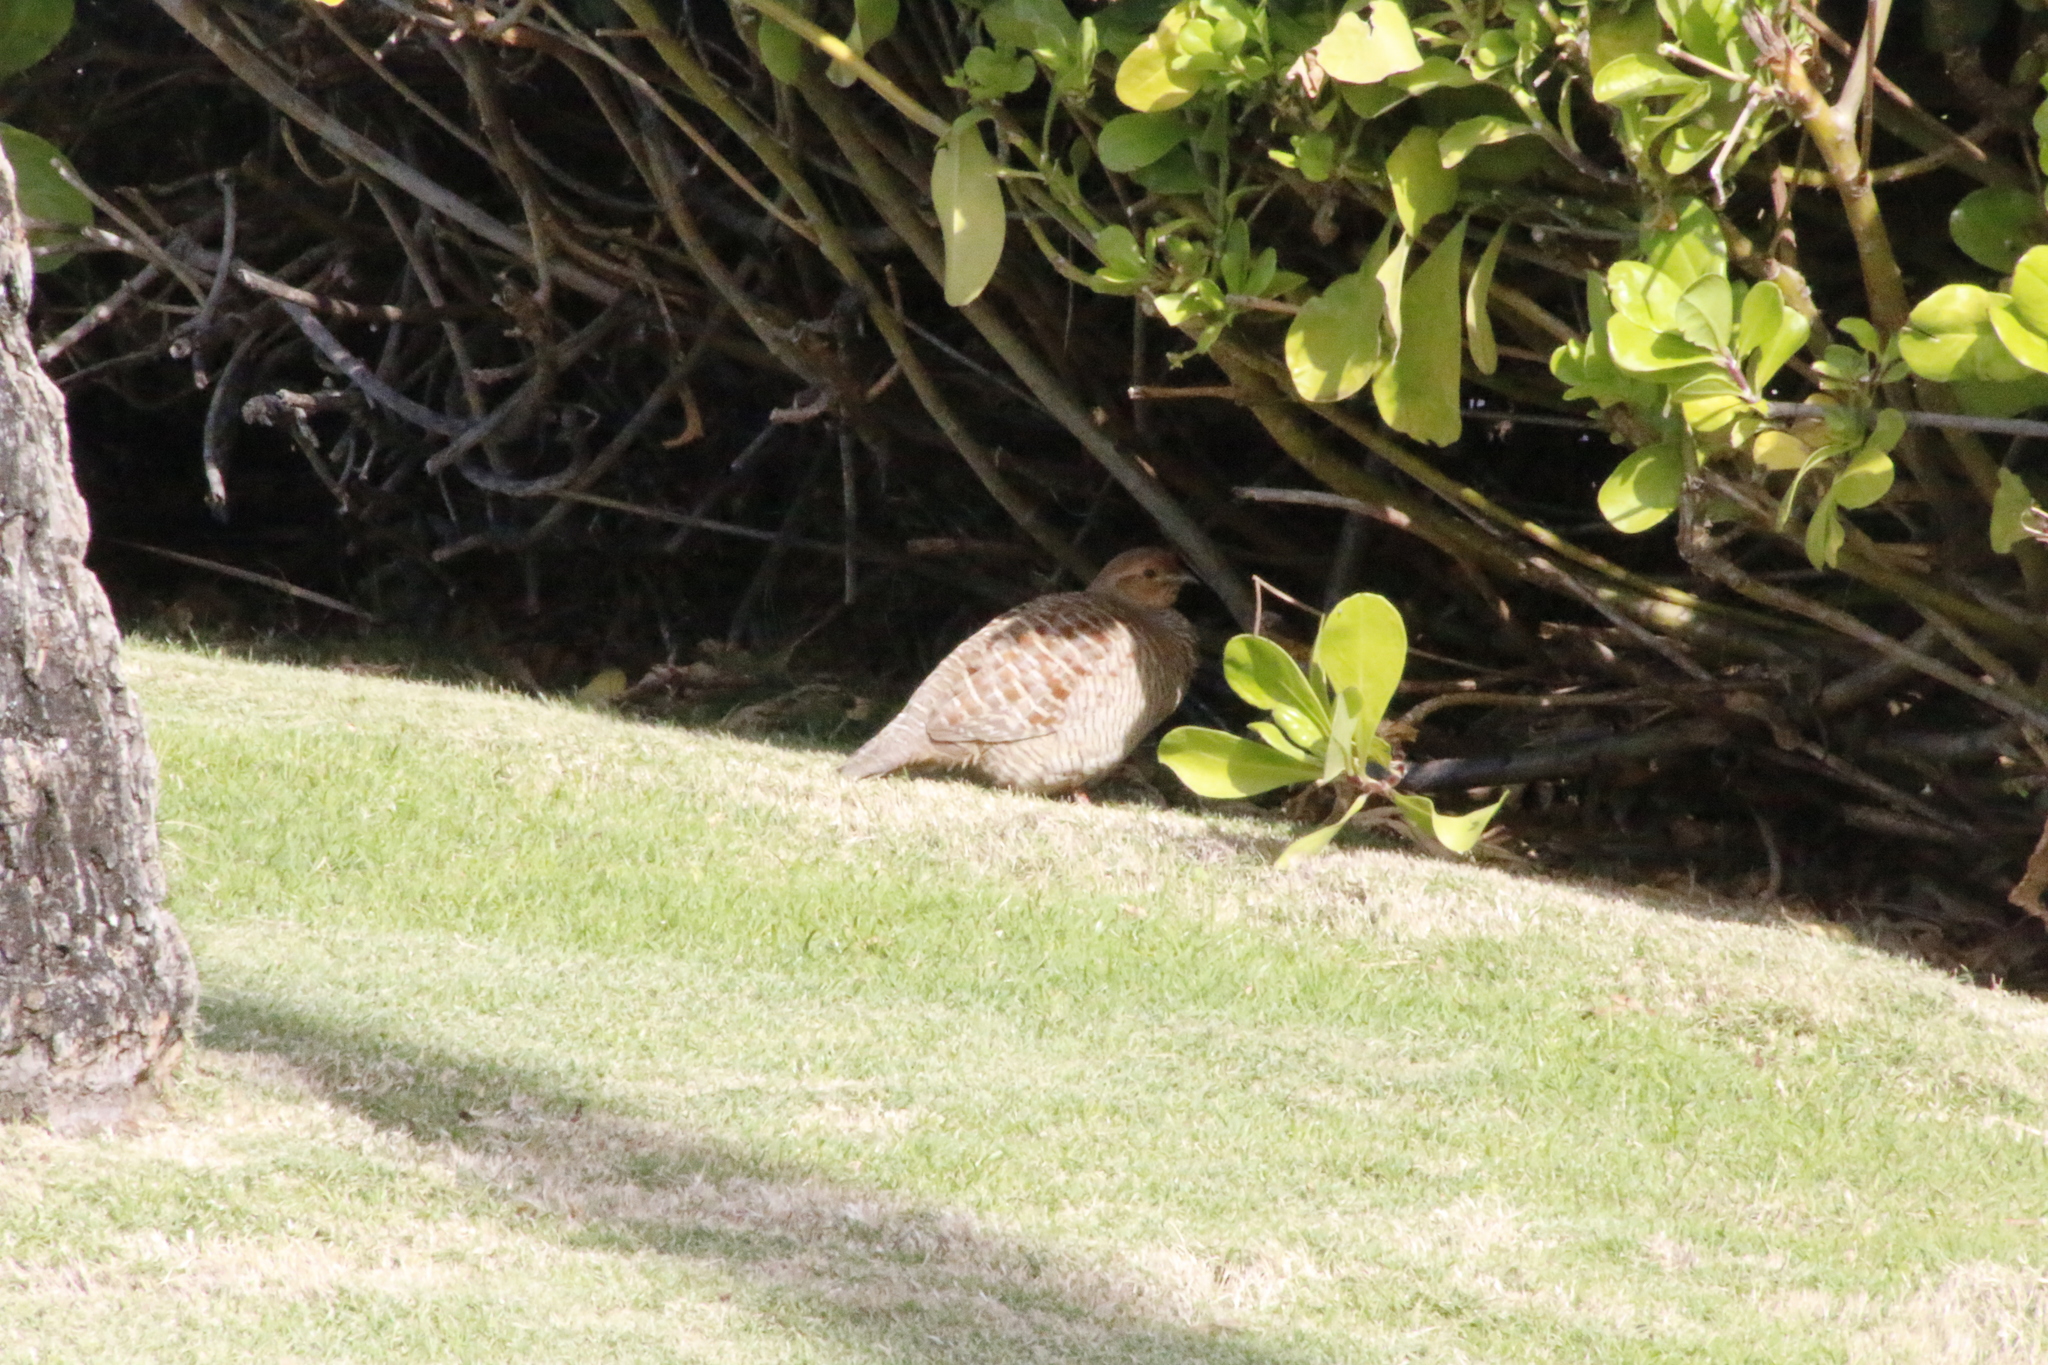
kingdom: Animalia
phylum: Chordata
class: Aves
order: Galliformes
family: Phasianidae
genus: Ortygornis
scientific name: Ortygornis pondicerianus
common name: Grey francolin
